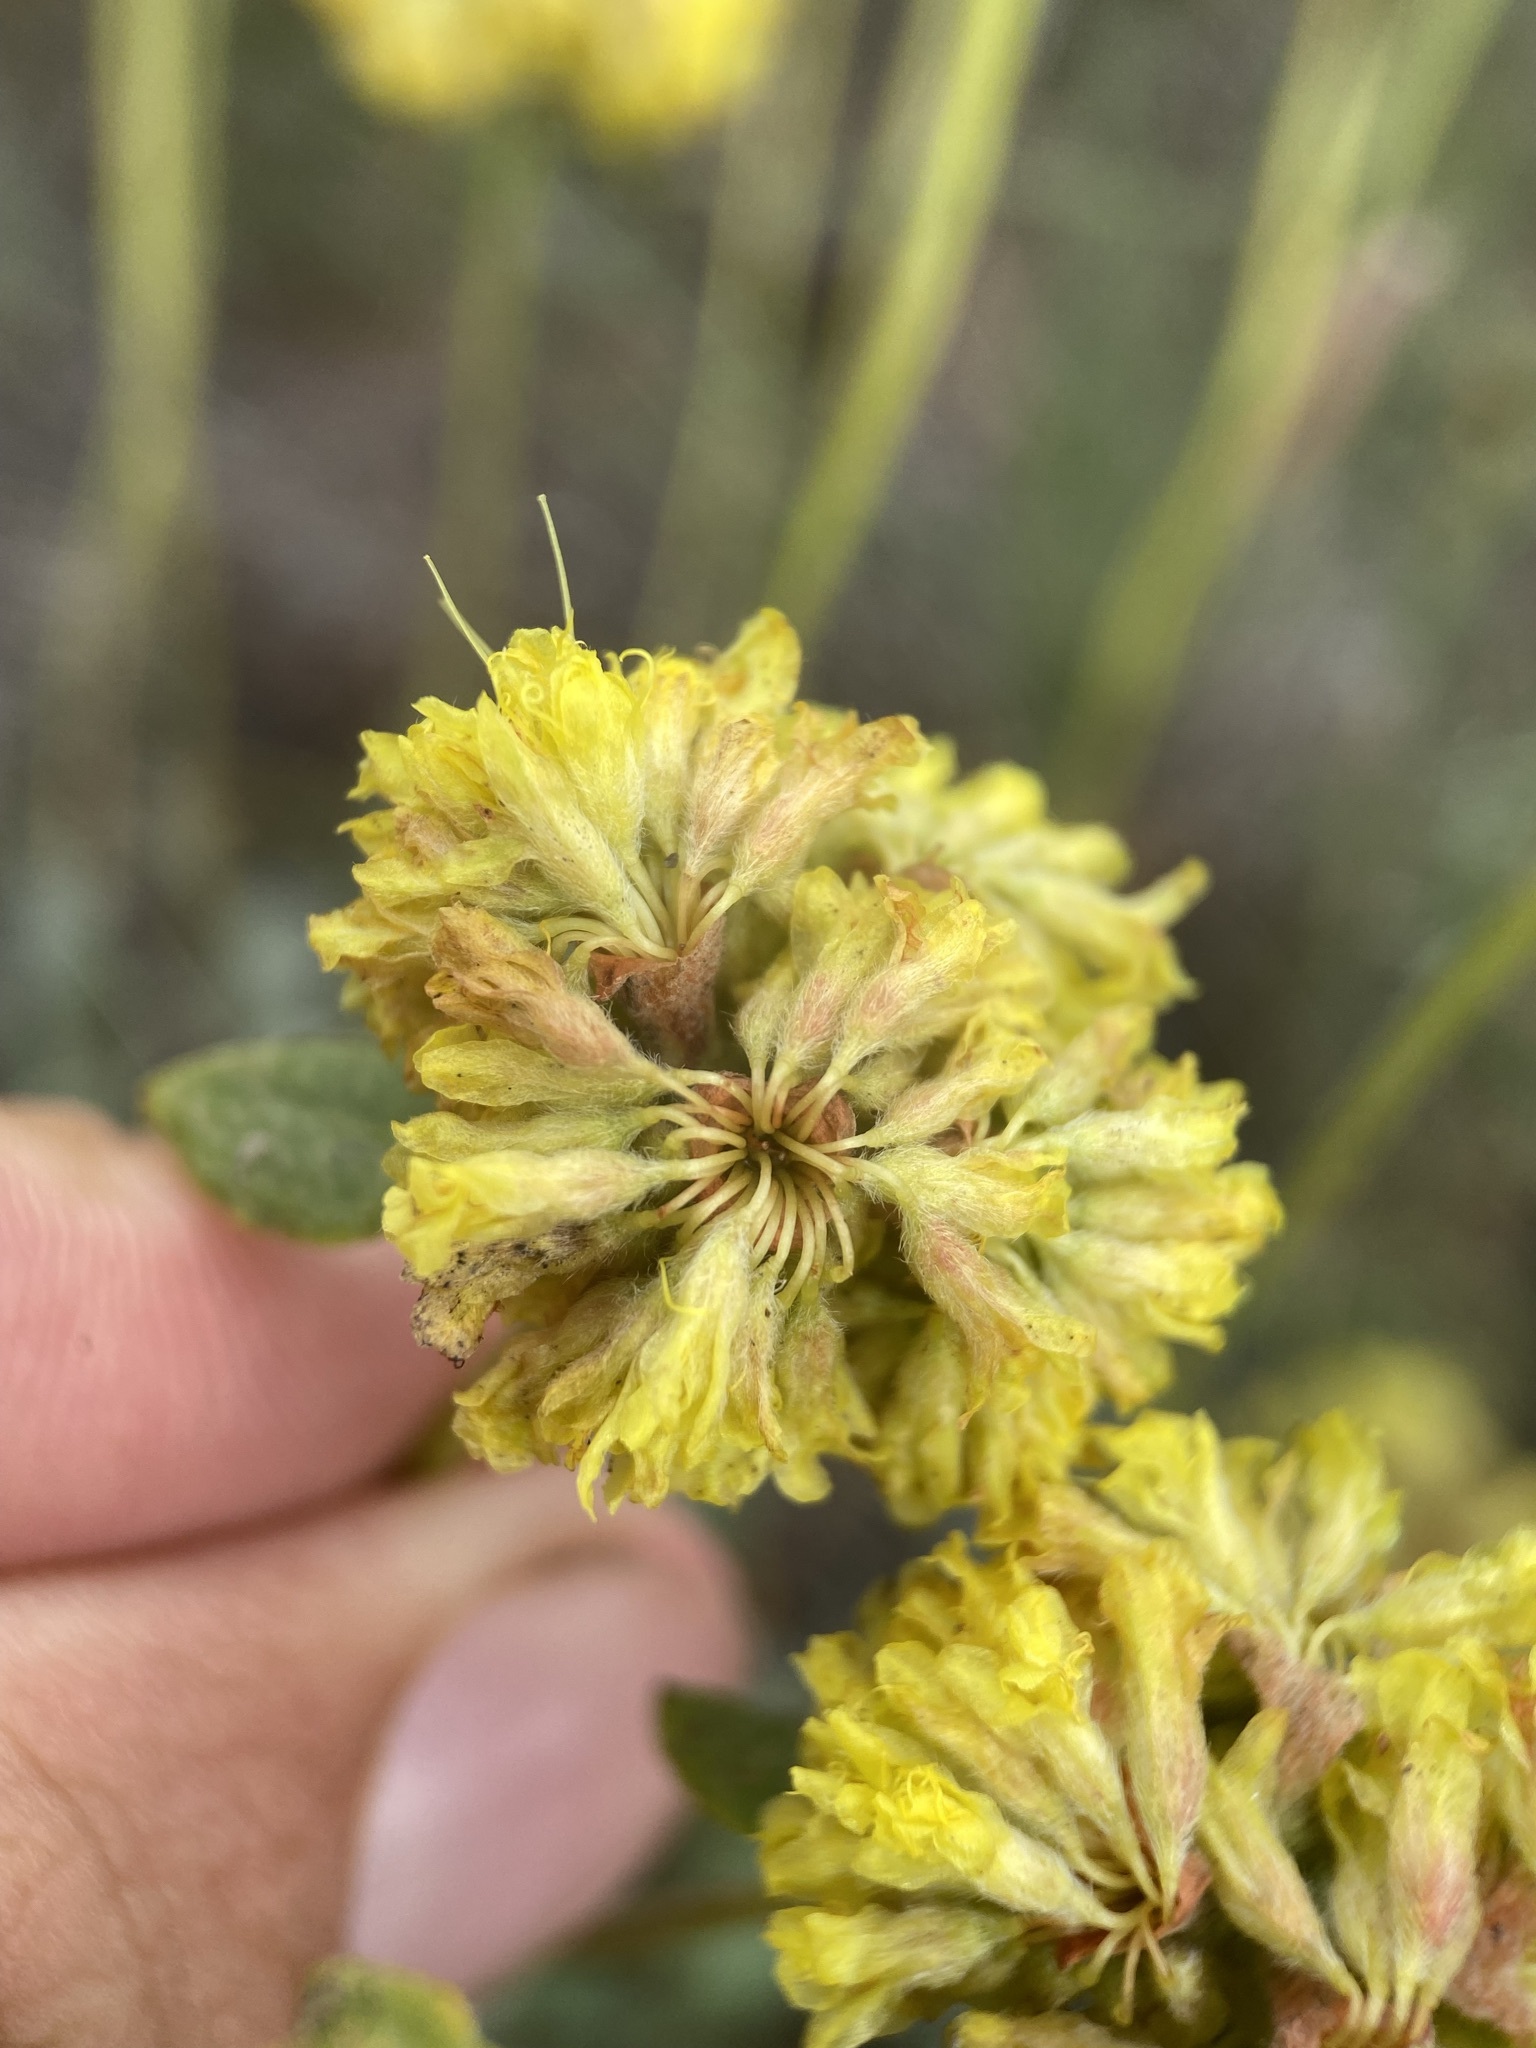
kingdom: Plantae
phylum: Tracheophyta
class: Magnoliopsida
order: Caryophyllales
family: Polygonaceae
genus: Eriogonum
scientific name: Eriogonum flavum
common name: Alpine golden wild buckwheat
